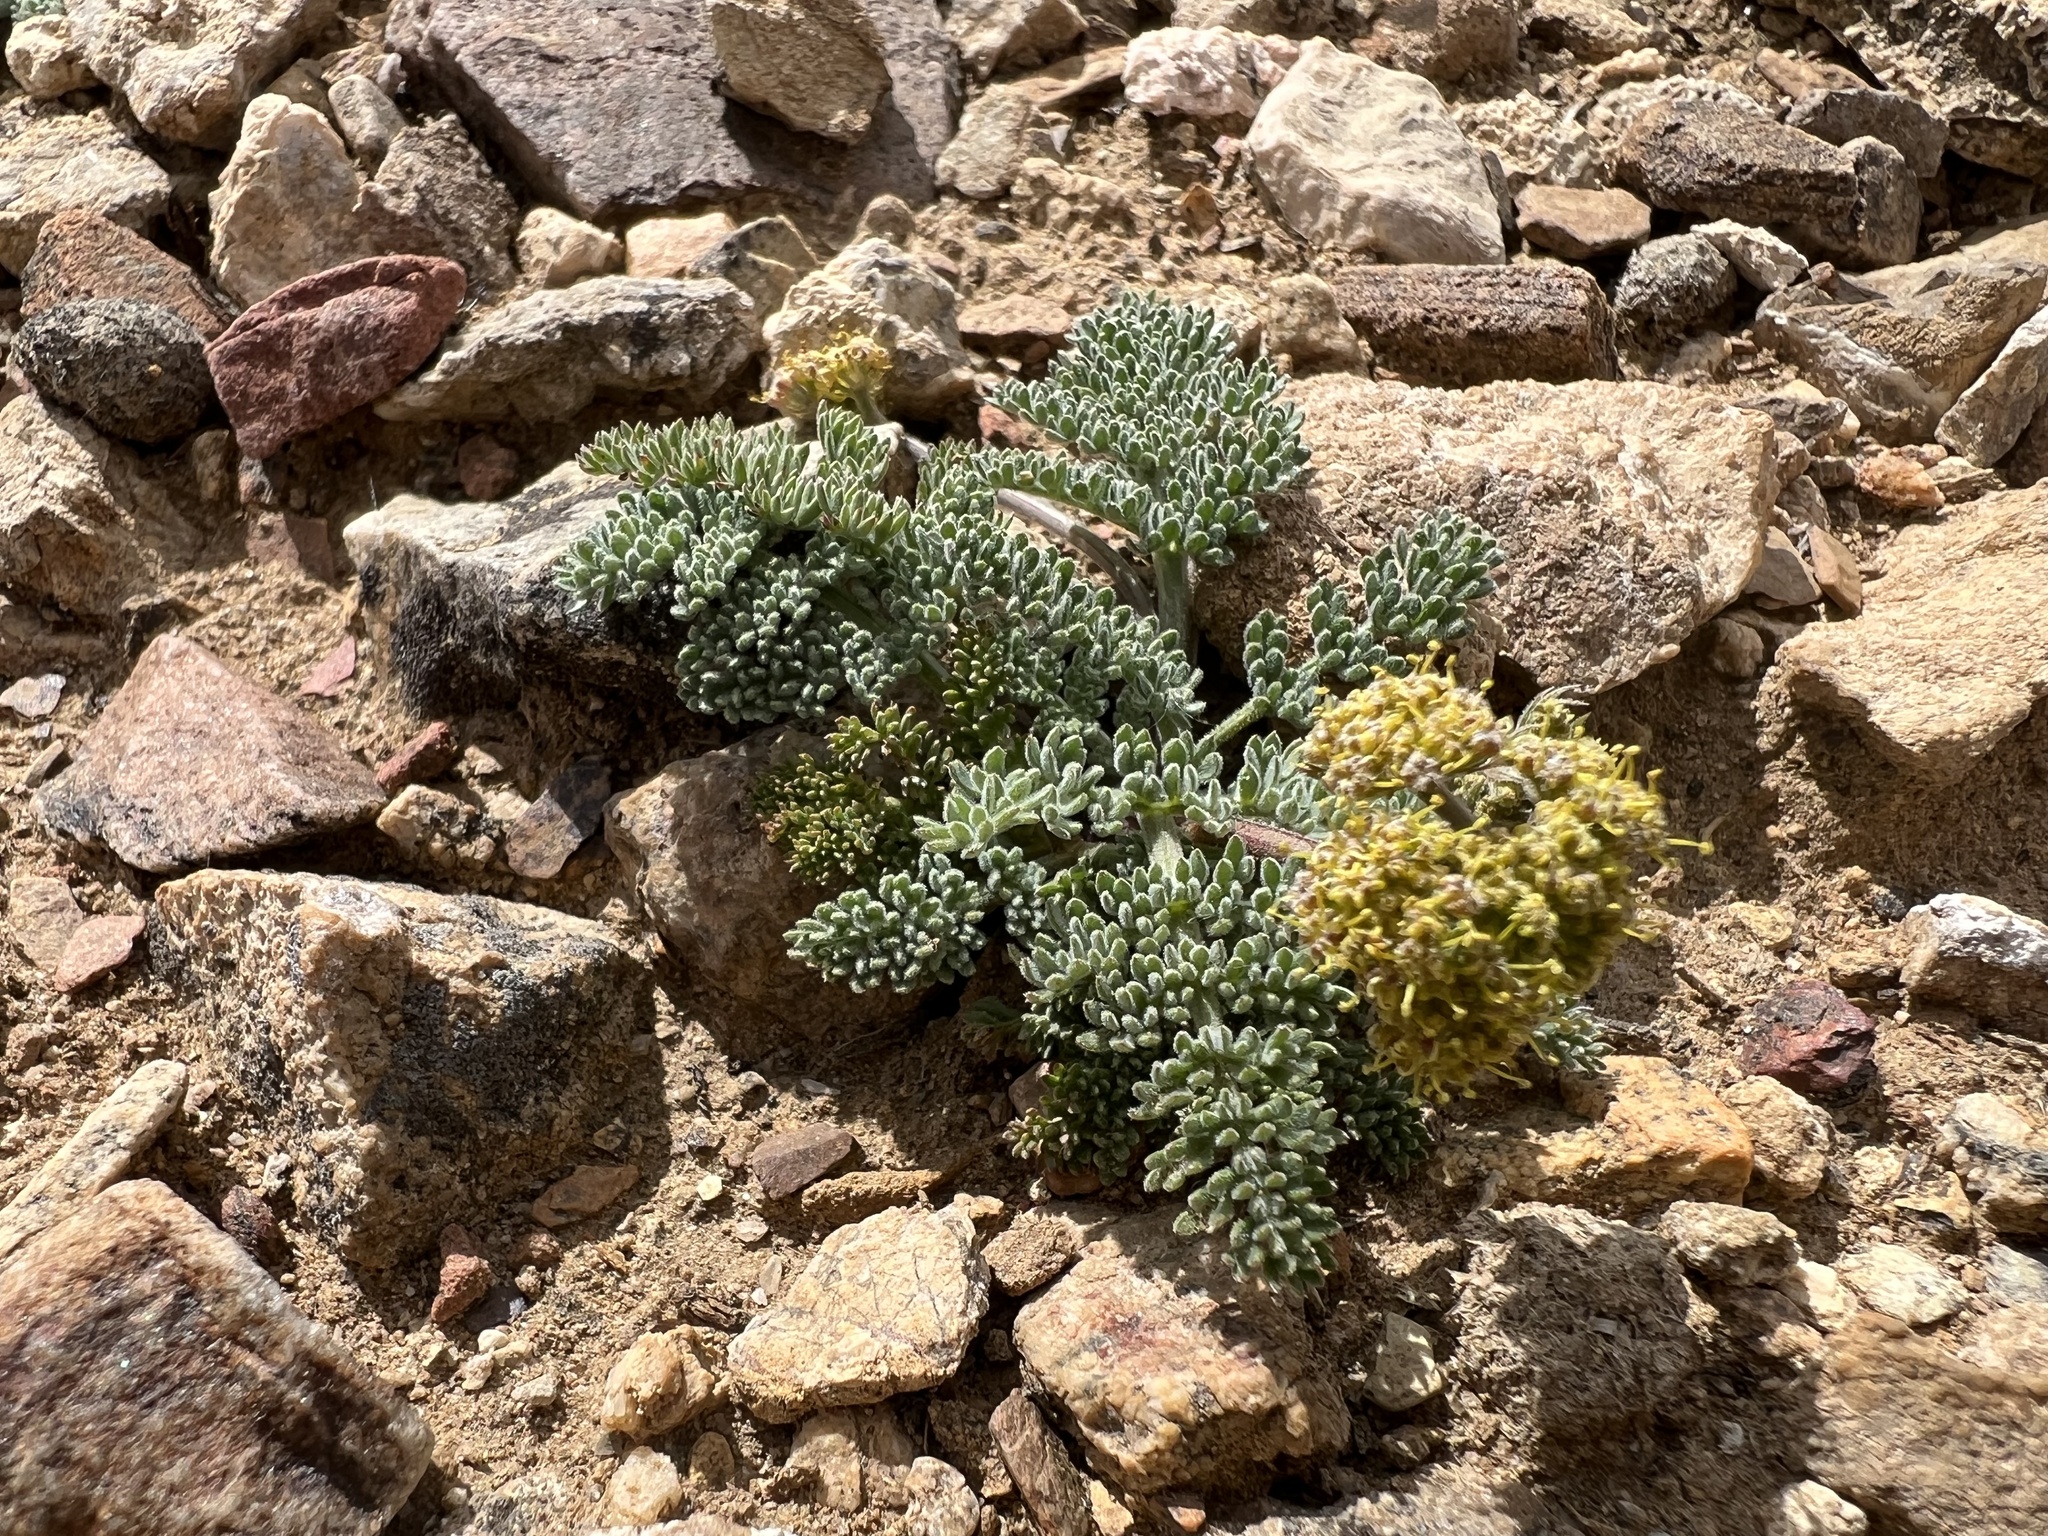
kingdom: Plantae
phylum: Tracheophyta
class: Magnoliopsida
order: Apiales
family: Apiaceae
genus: Lomatium
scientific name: Lomatium foeniculaceum
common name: Desert-parsley
